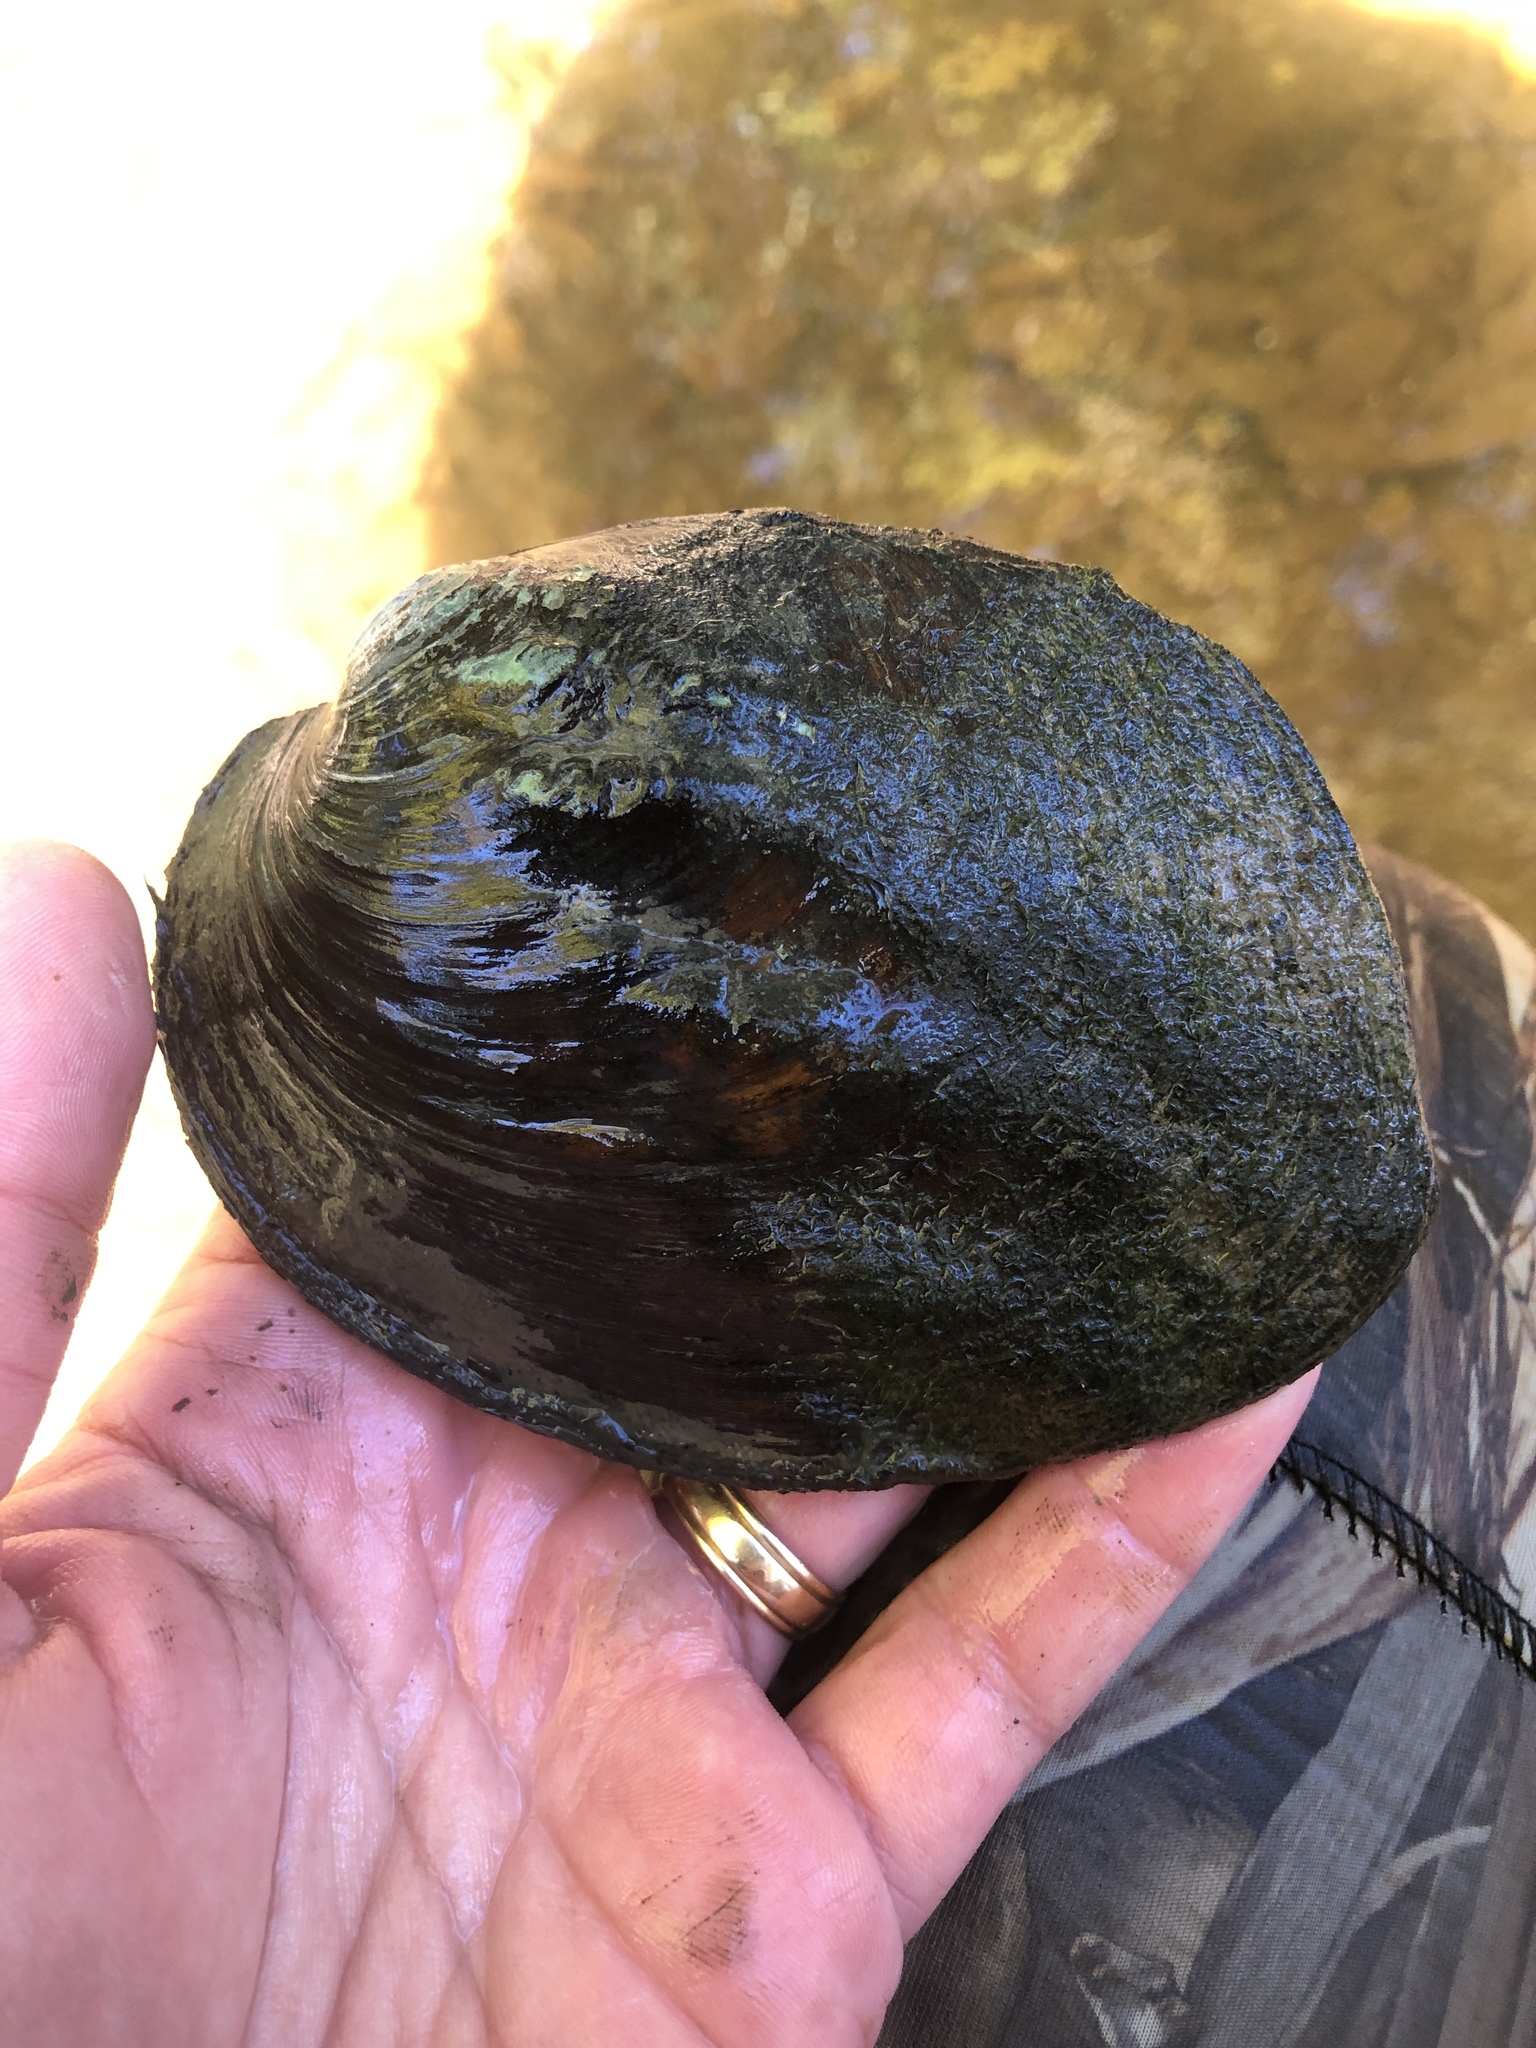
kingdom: Animalia
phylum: Mollusca
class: Bivalvia
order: Unionida
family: Unionidae
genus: Amblema
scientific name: Amblema plicata
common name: Threeridge
